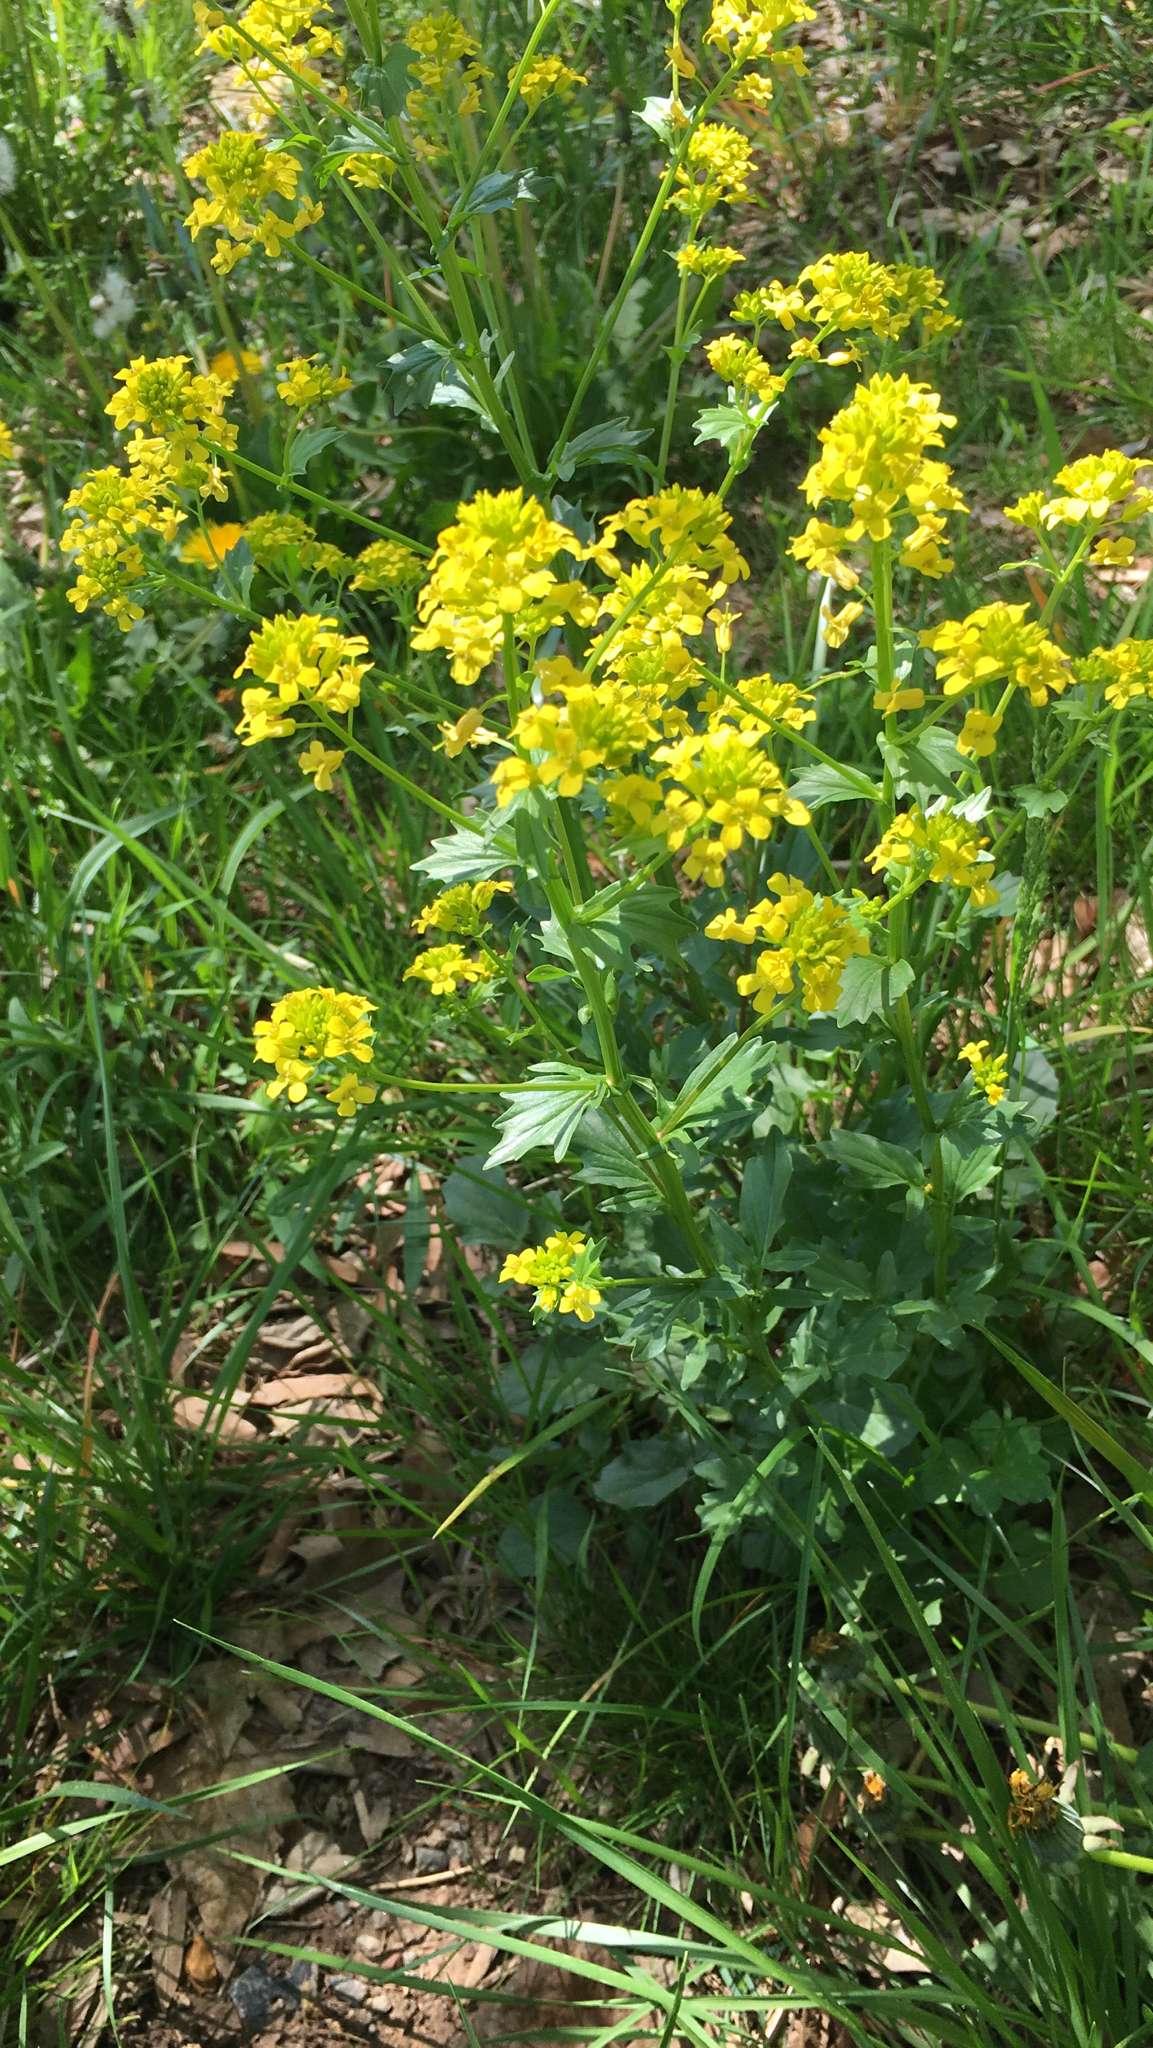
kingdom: Plantae
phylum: Tracheophyta
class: Magnoliopsida
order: Brassicales
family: Brassicaceae
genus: Barbarea
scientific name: Barbarea vulgaris
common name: Cressy-greens
